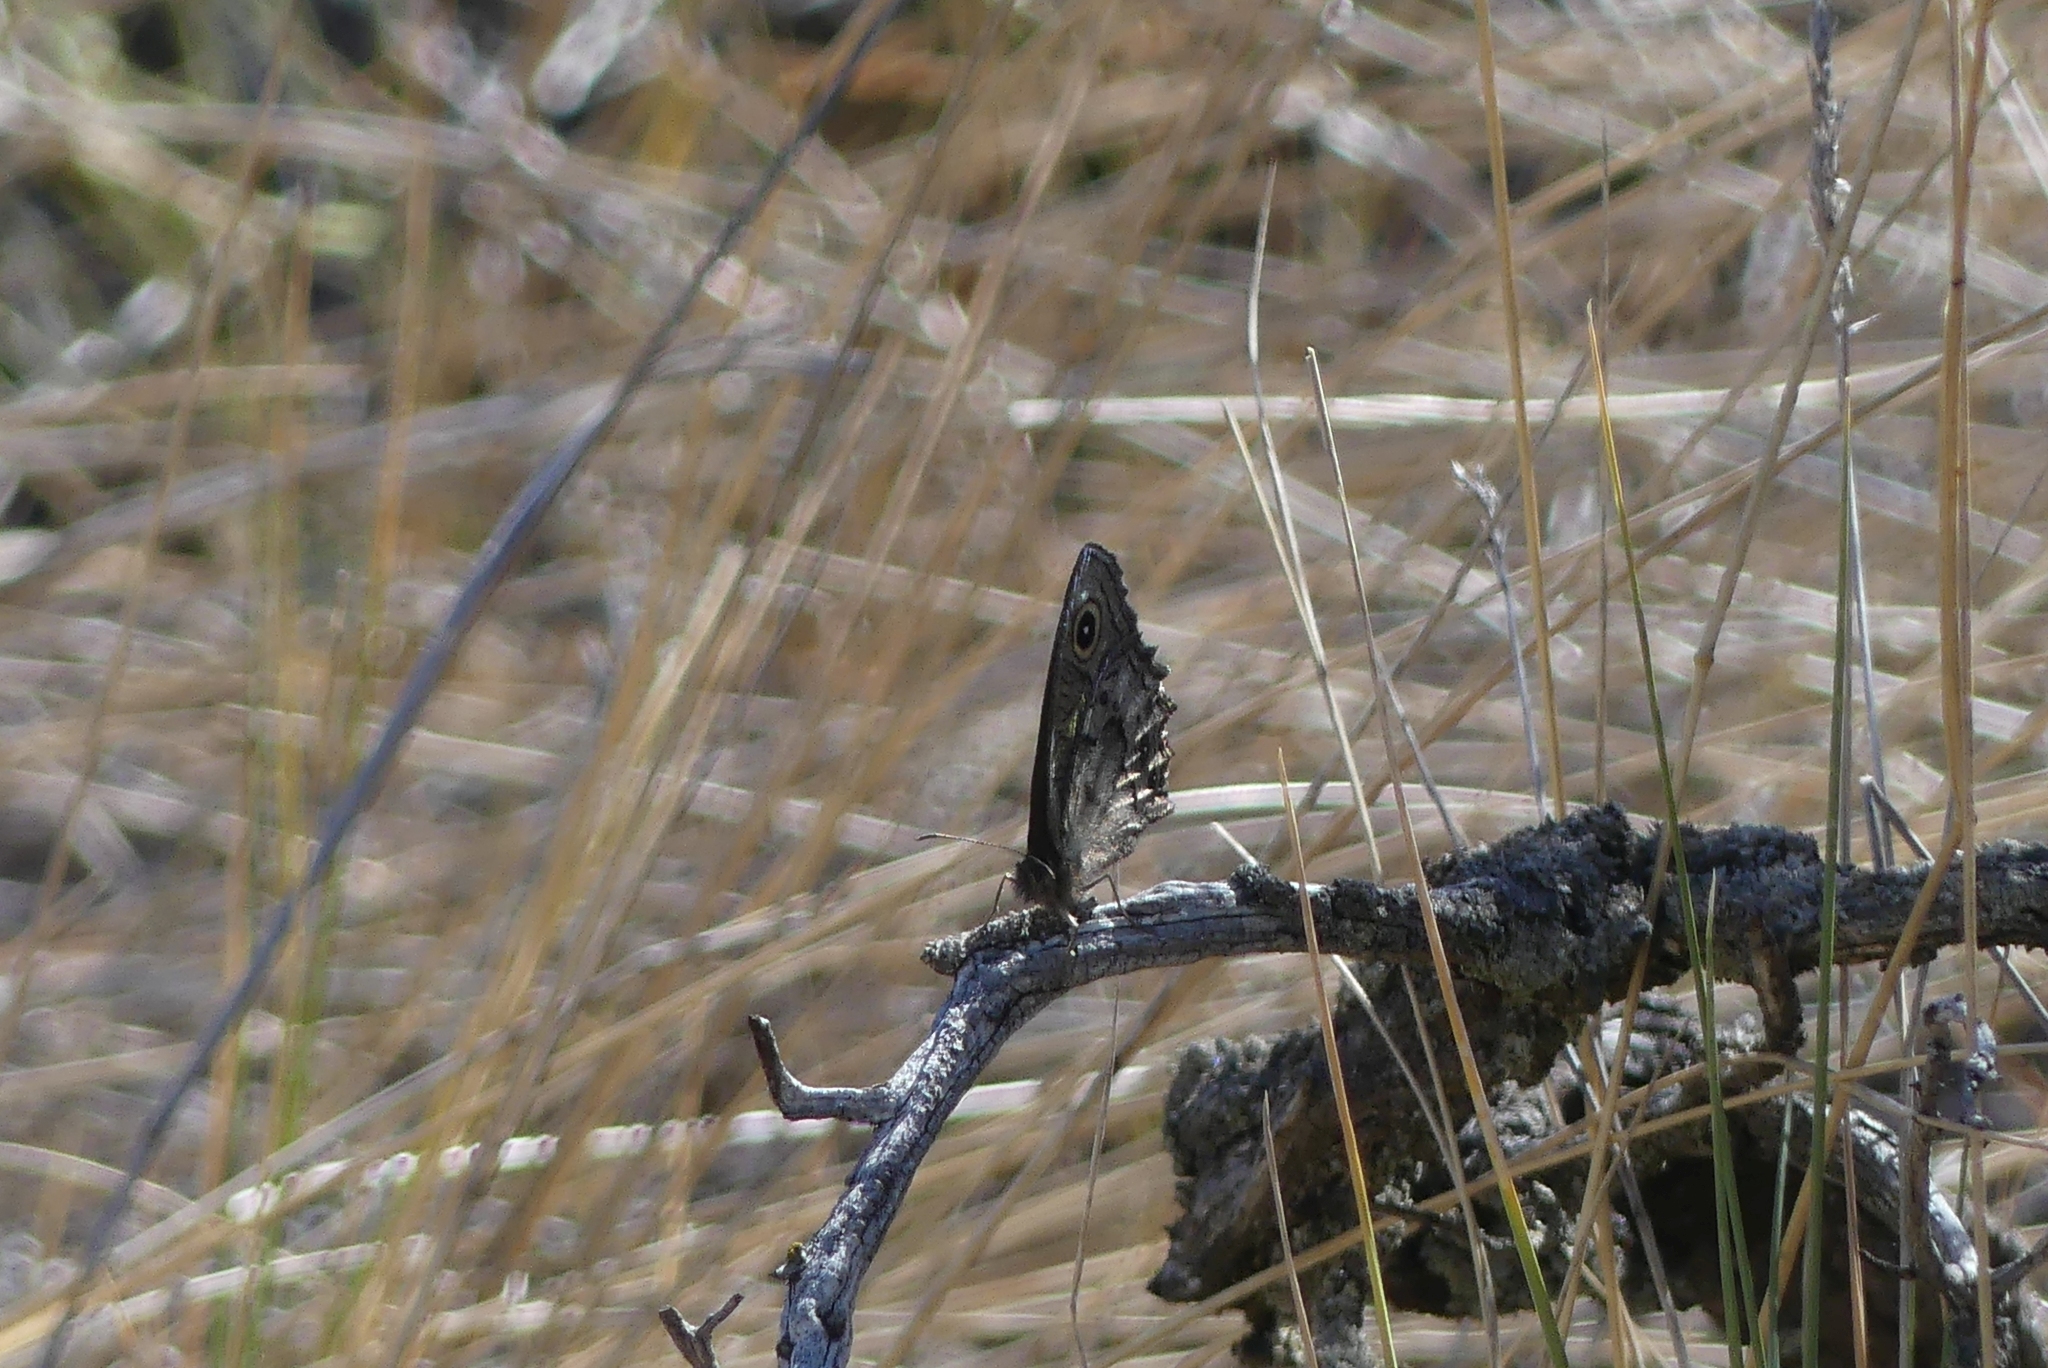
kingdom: Animalia
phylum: Arthropoda
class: Insecta
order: Lepidoptera
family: Nymphalidae
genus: Cercyonis
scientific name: Cercyonis sthenele
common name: Great basin wood-nymph
